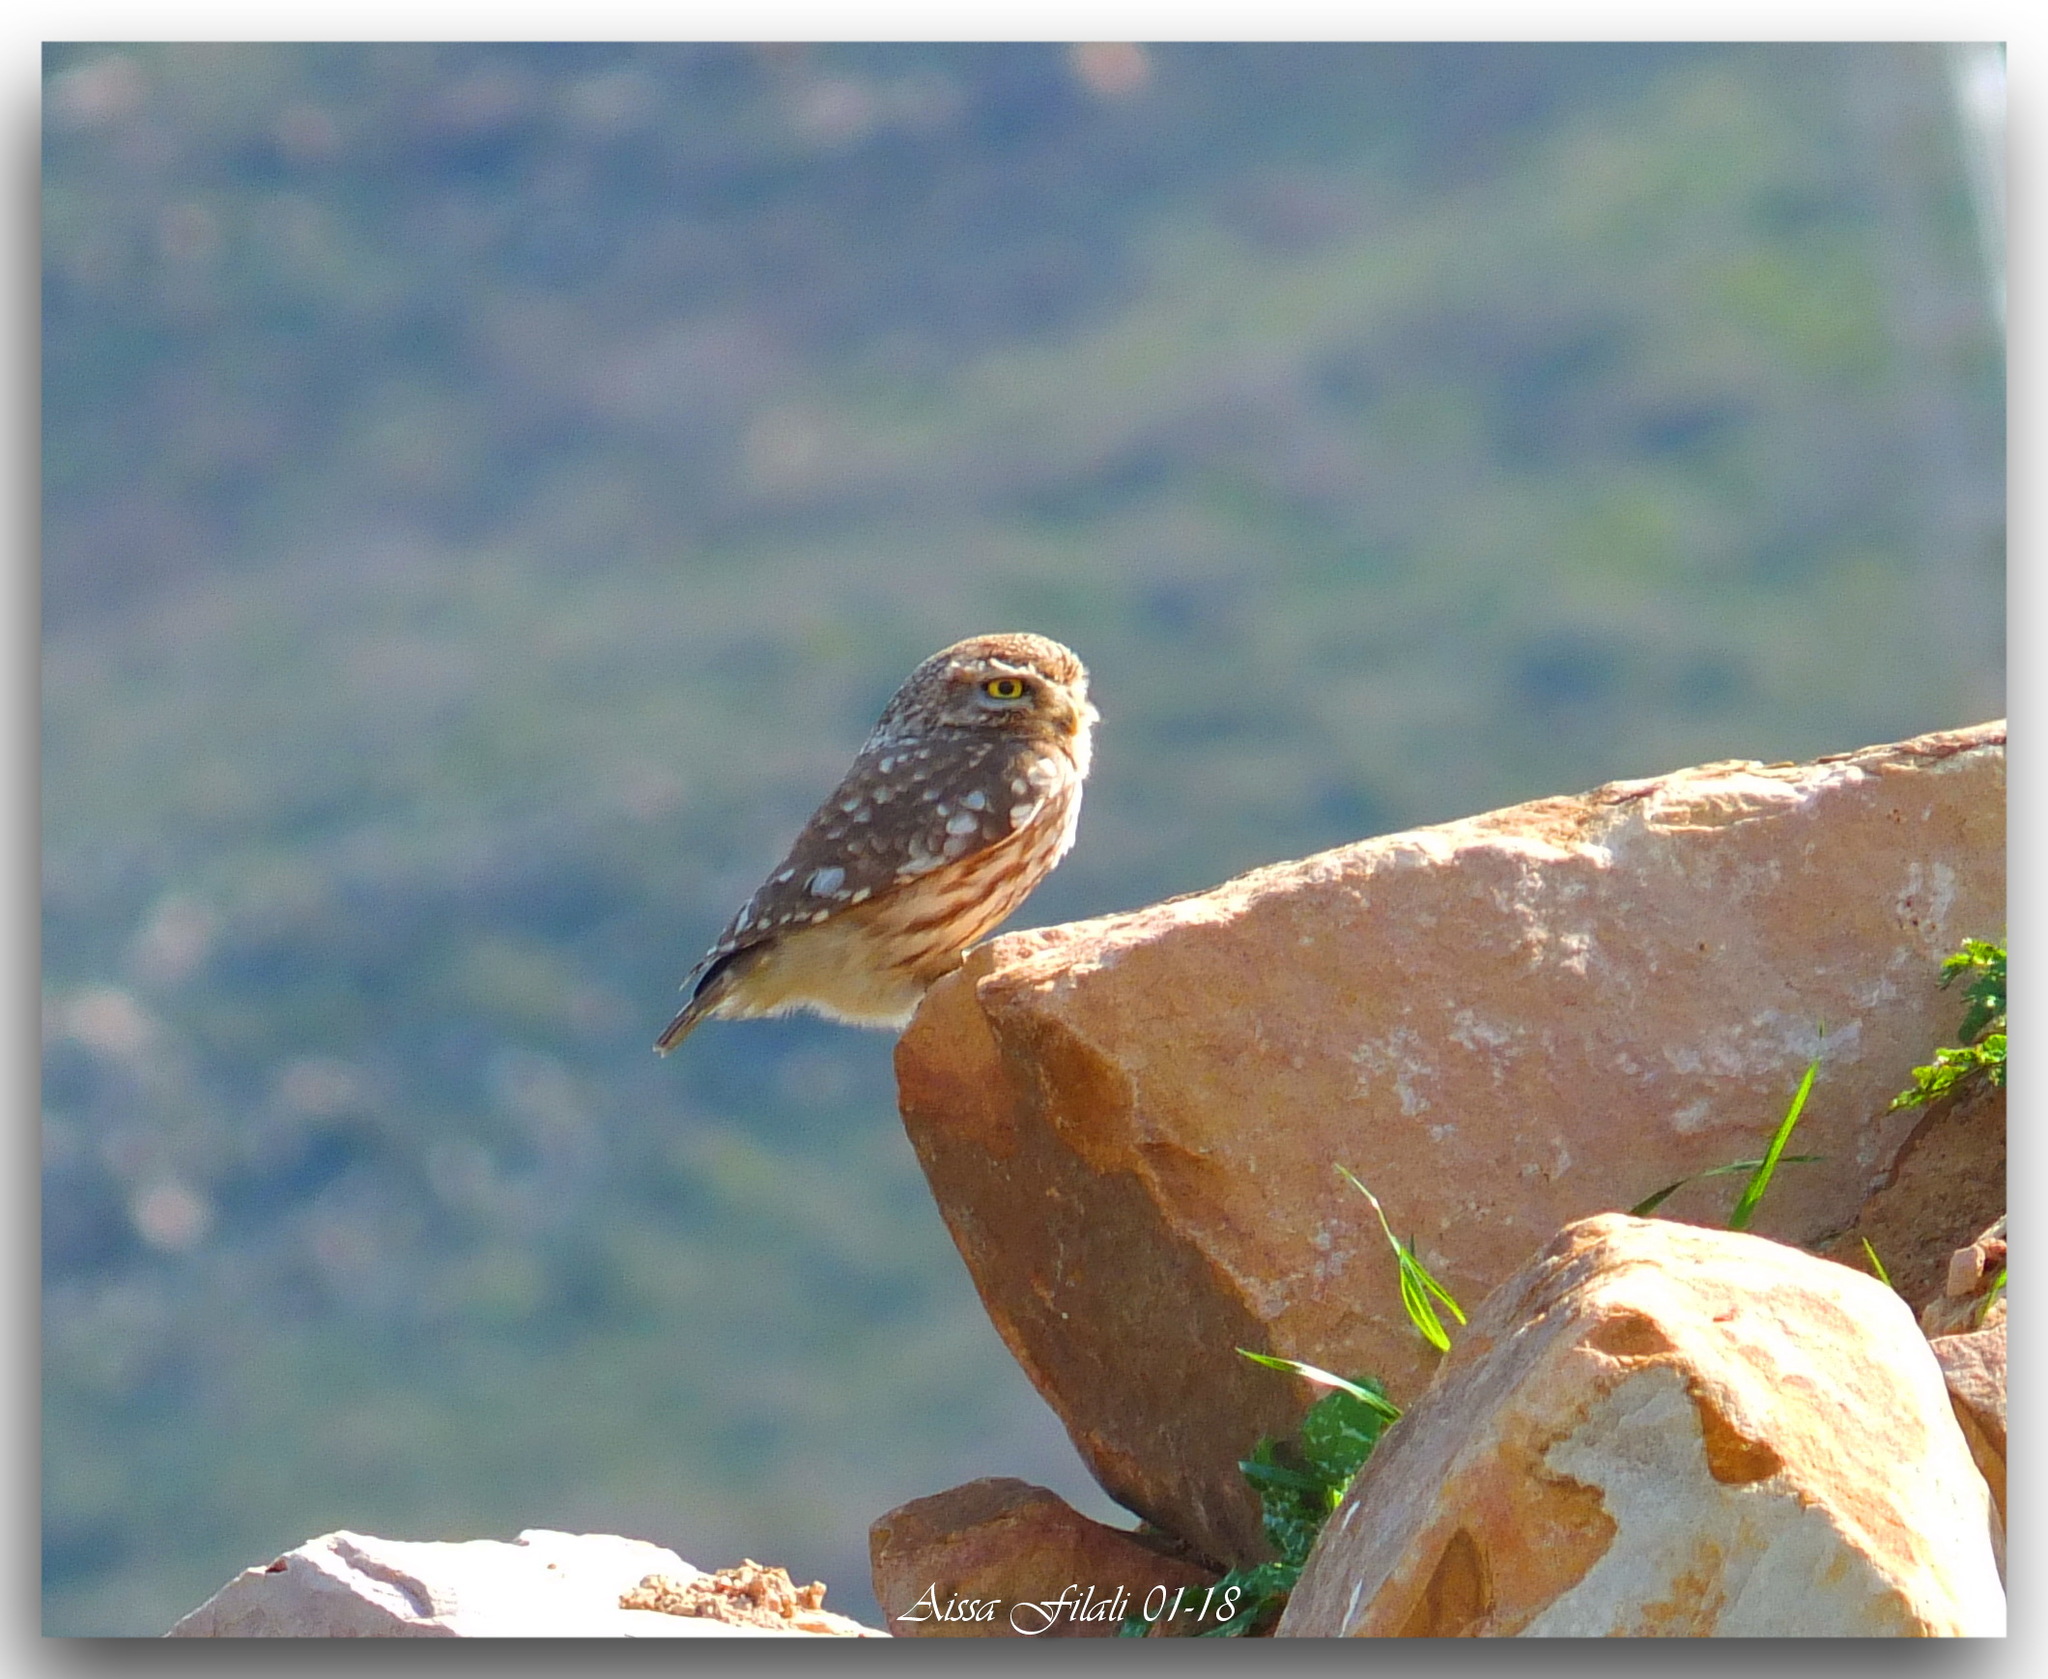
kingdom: Animalia
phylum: Chordata
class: Aves
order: Strigiformes
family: Strigidae
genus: Athene
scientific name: Athene noctua
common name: Little owl
